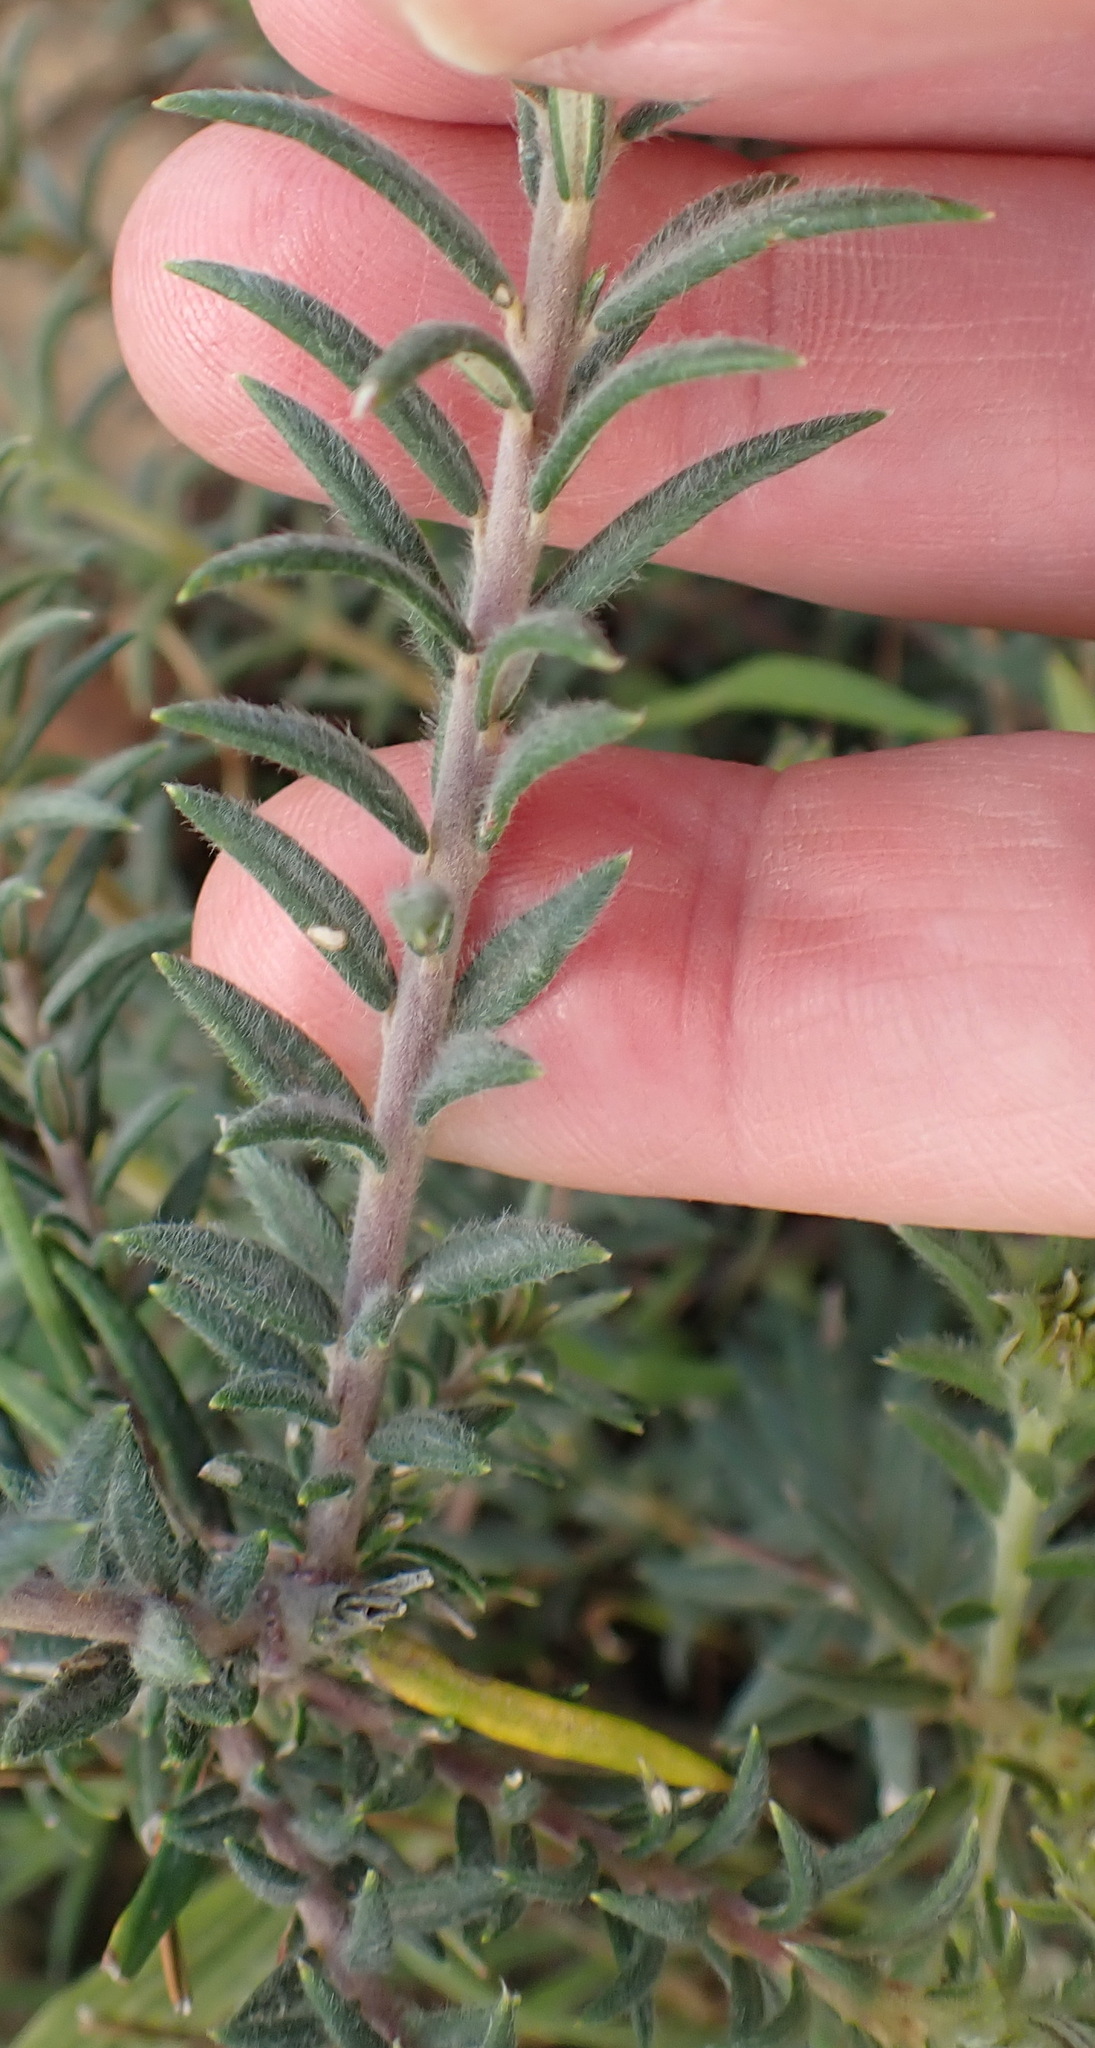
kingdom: Plantae
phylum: Tracheophyta
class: Magnoliopsida
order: Rosales
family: Rhamnaceae
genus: Phylica
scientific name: Phylica plumosa
